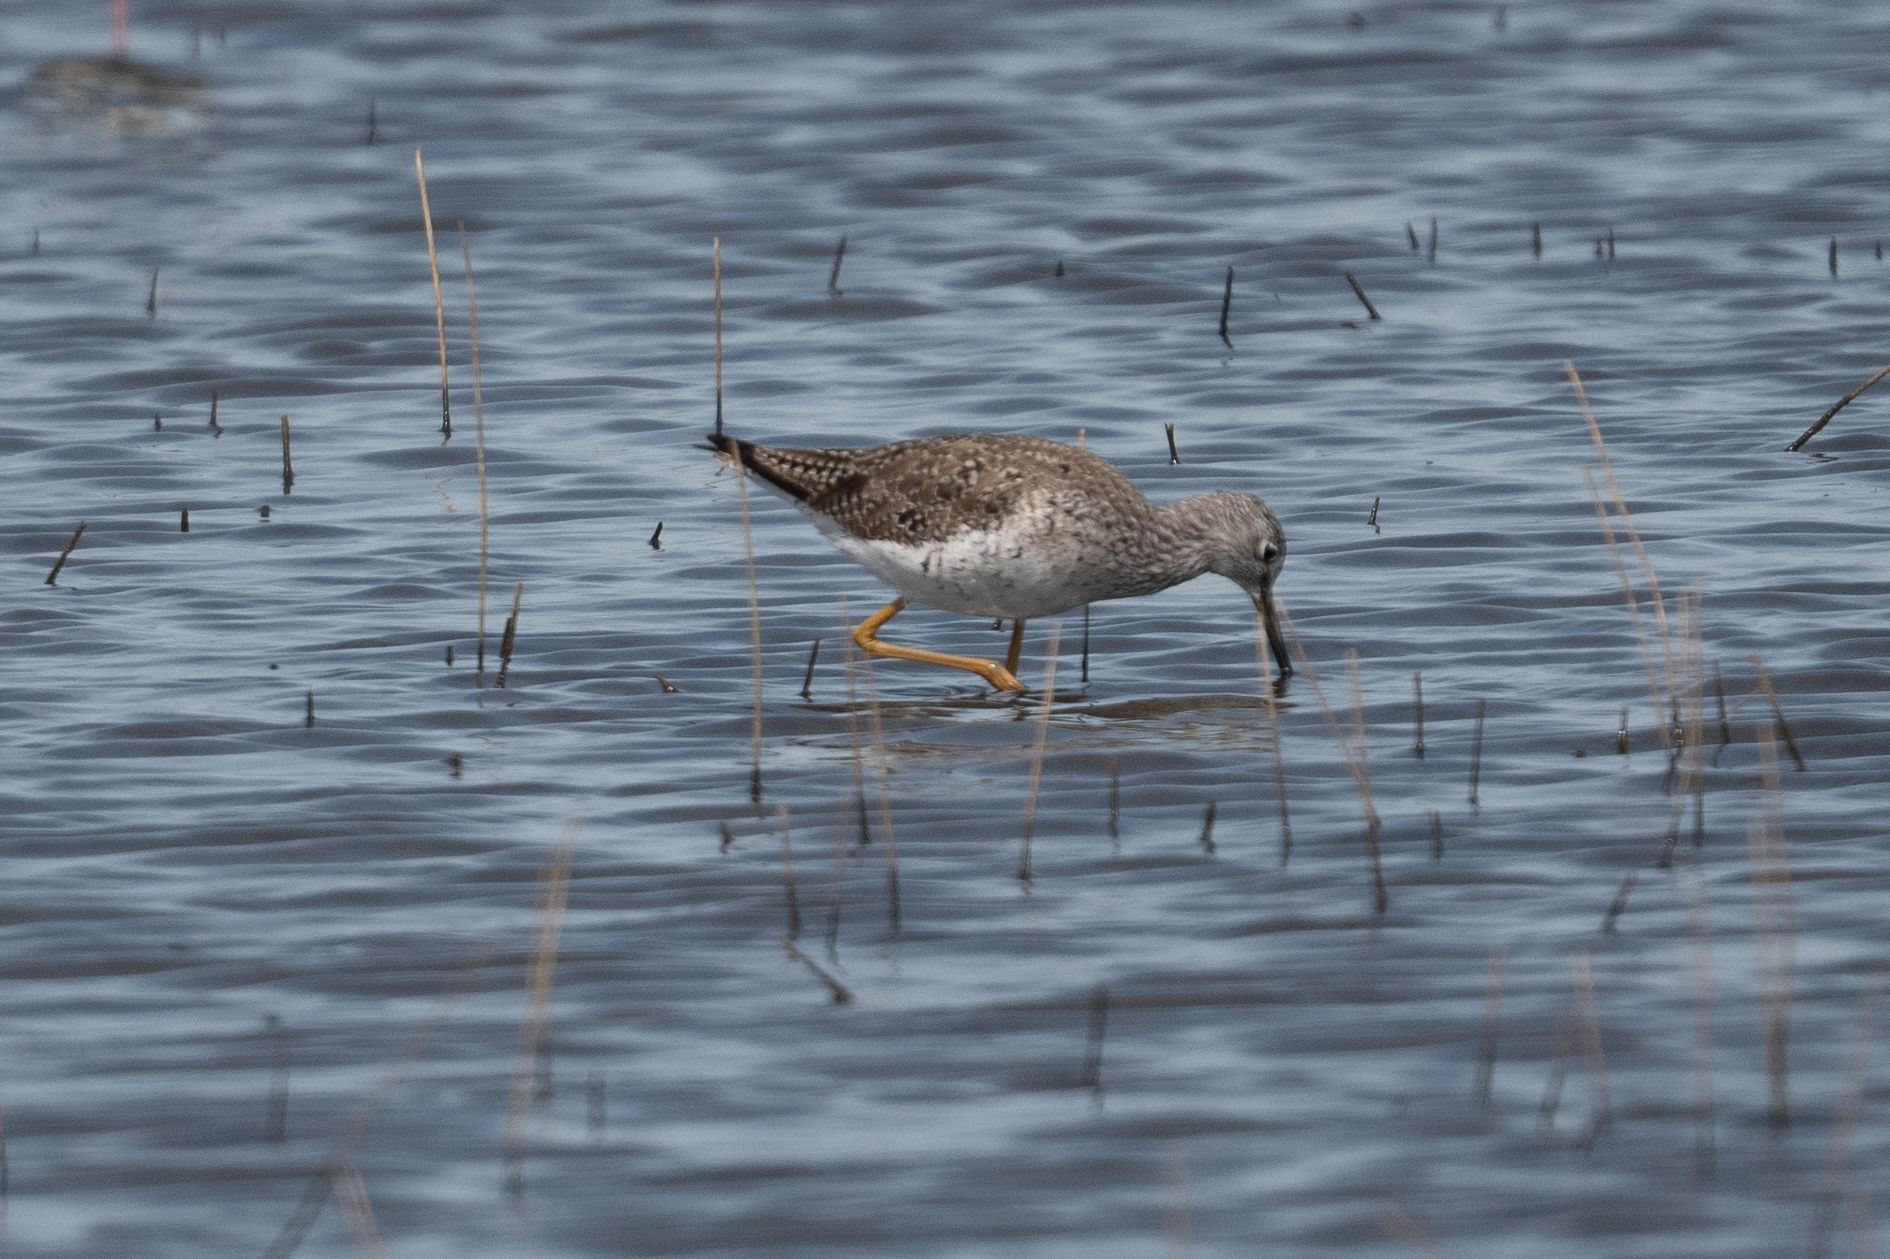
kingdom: Animalia
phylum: Chordata
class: Aves
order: Charadriiformes
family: Scolopacidae
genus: Tringa
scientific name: Tringa melanoleuca
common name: Greater yellowlegs
